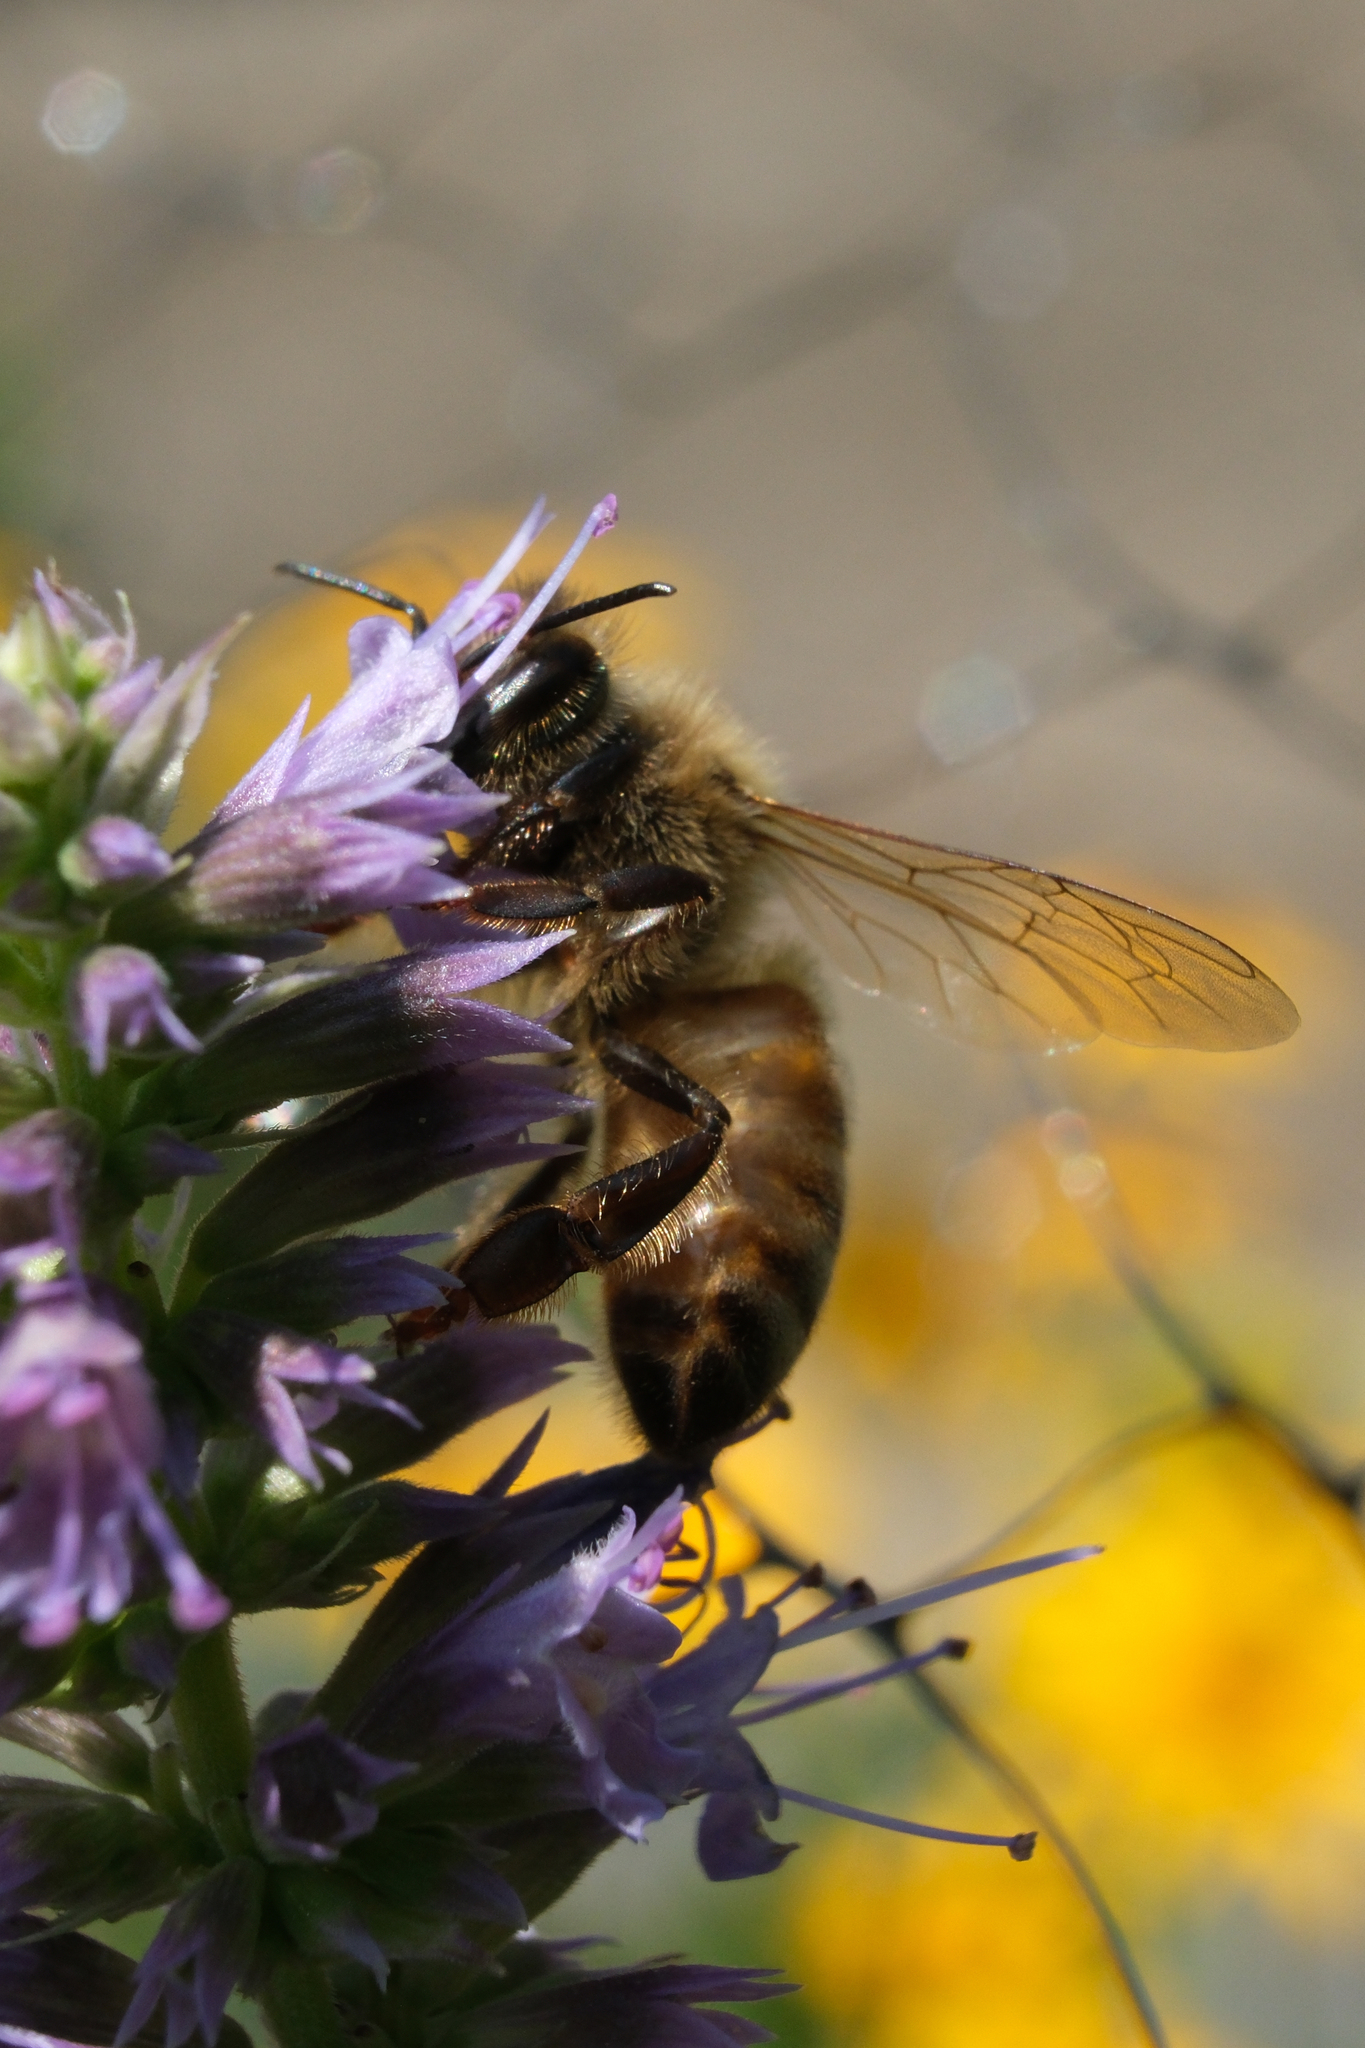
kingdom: Animalia
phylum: Arthropoda
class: Insecta
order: Hymenoptera
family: Apidae
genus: Apis
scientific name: Apis mellifera
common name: Honey bee
